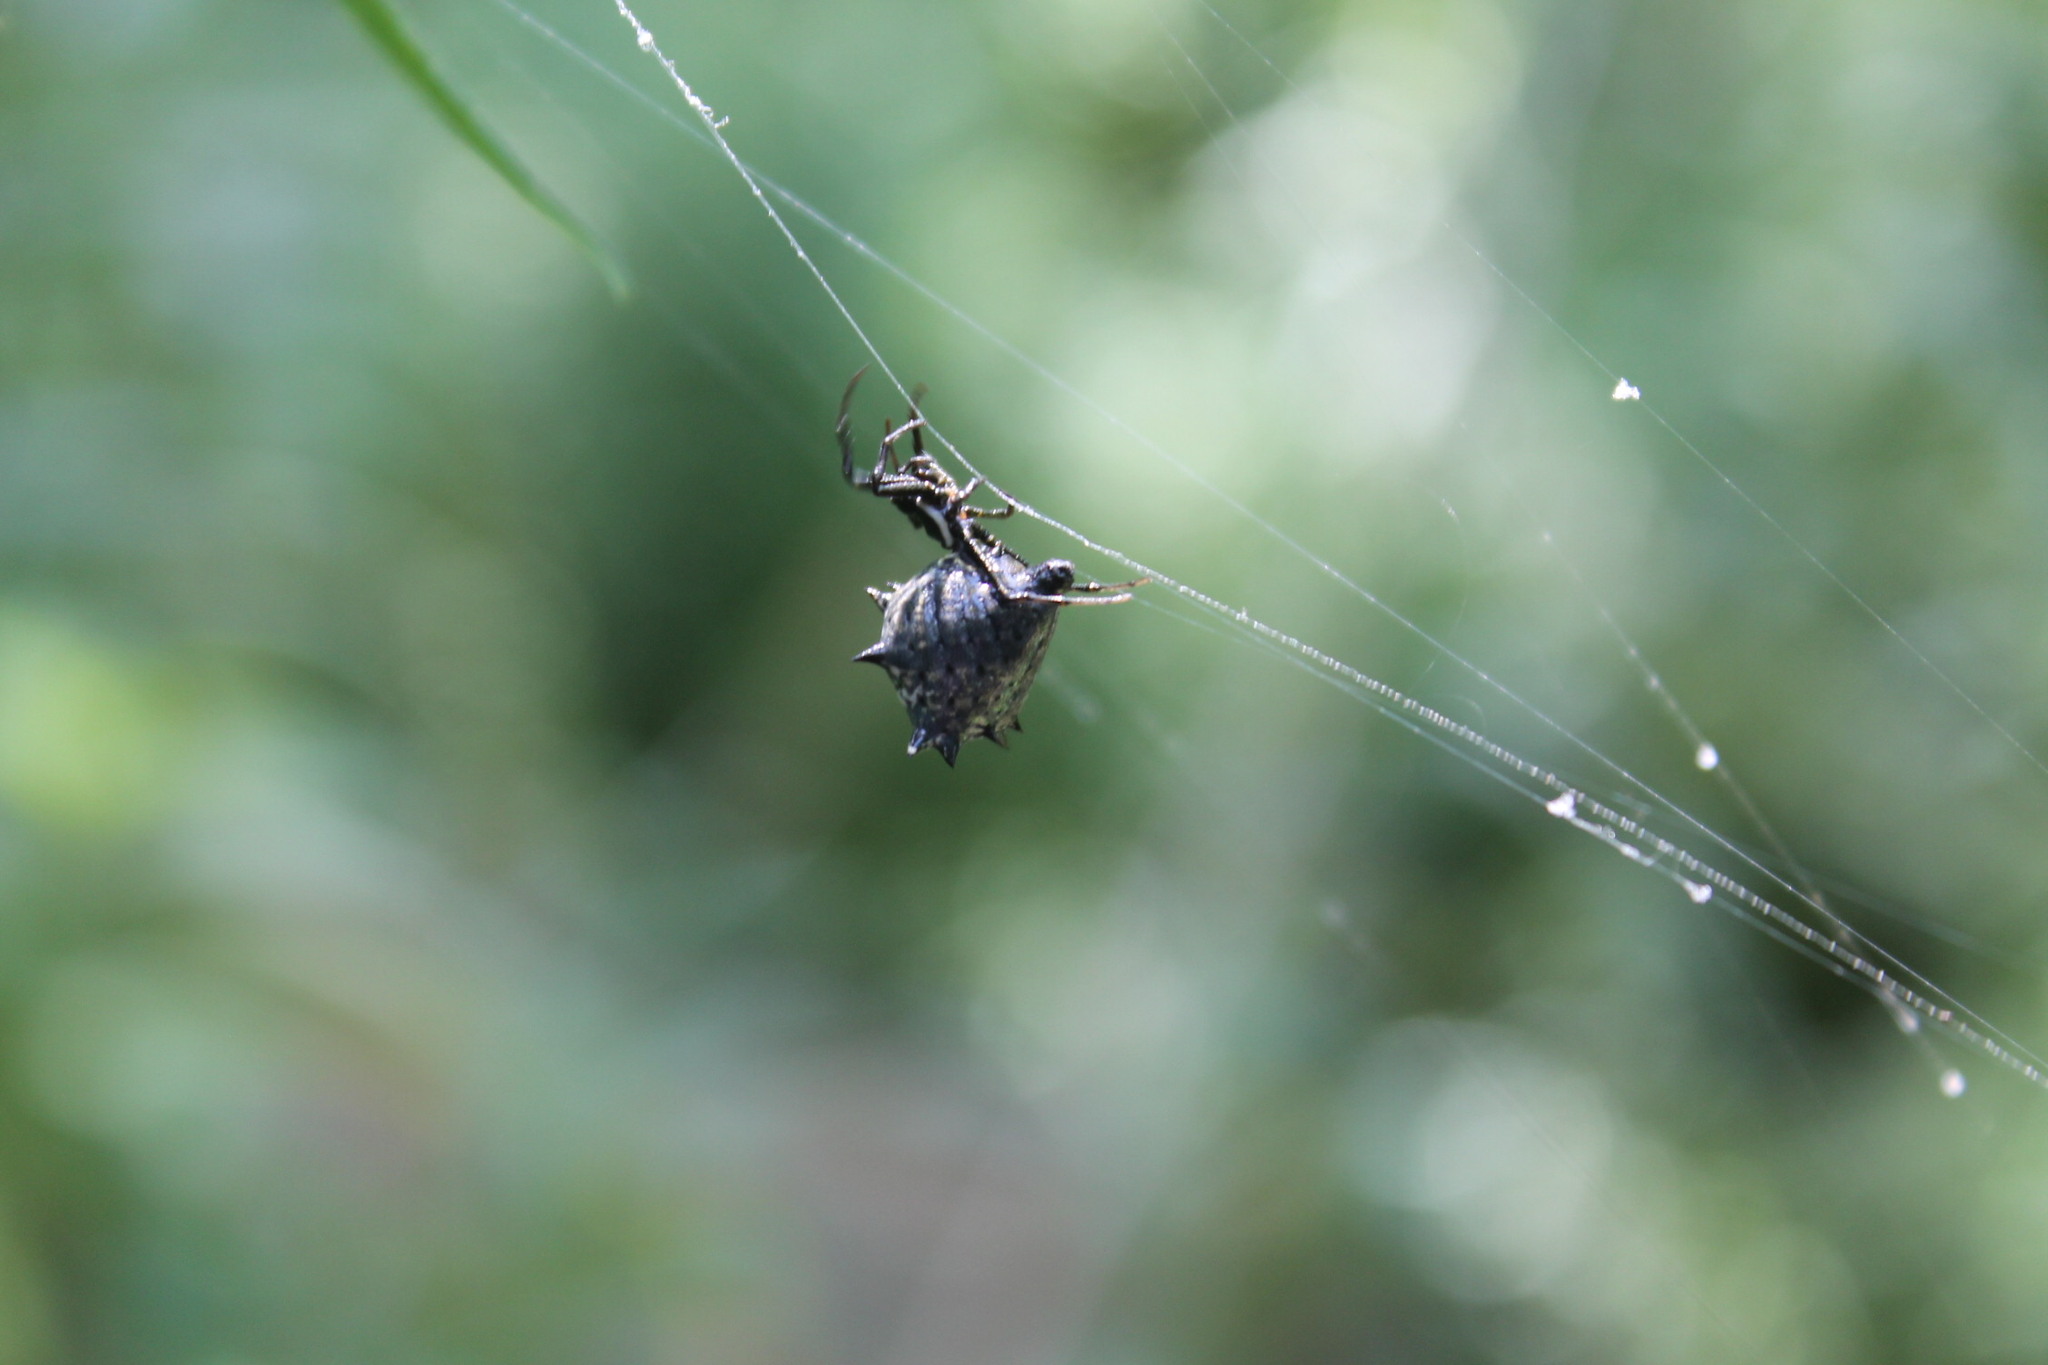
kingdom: Animalia
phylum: Arthropoda
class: Arachnida
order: Araneae
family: Araneidae
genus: Micrathena
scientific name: Micrathena gracilis
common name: Orb weavers
